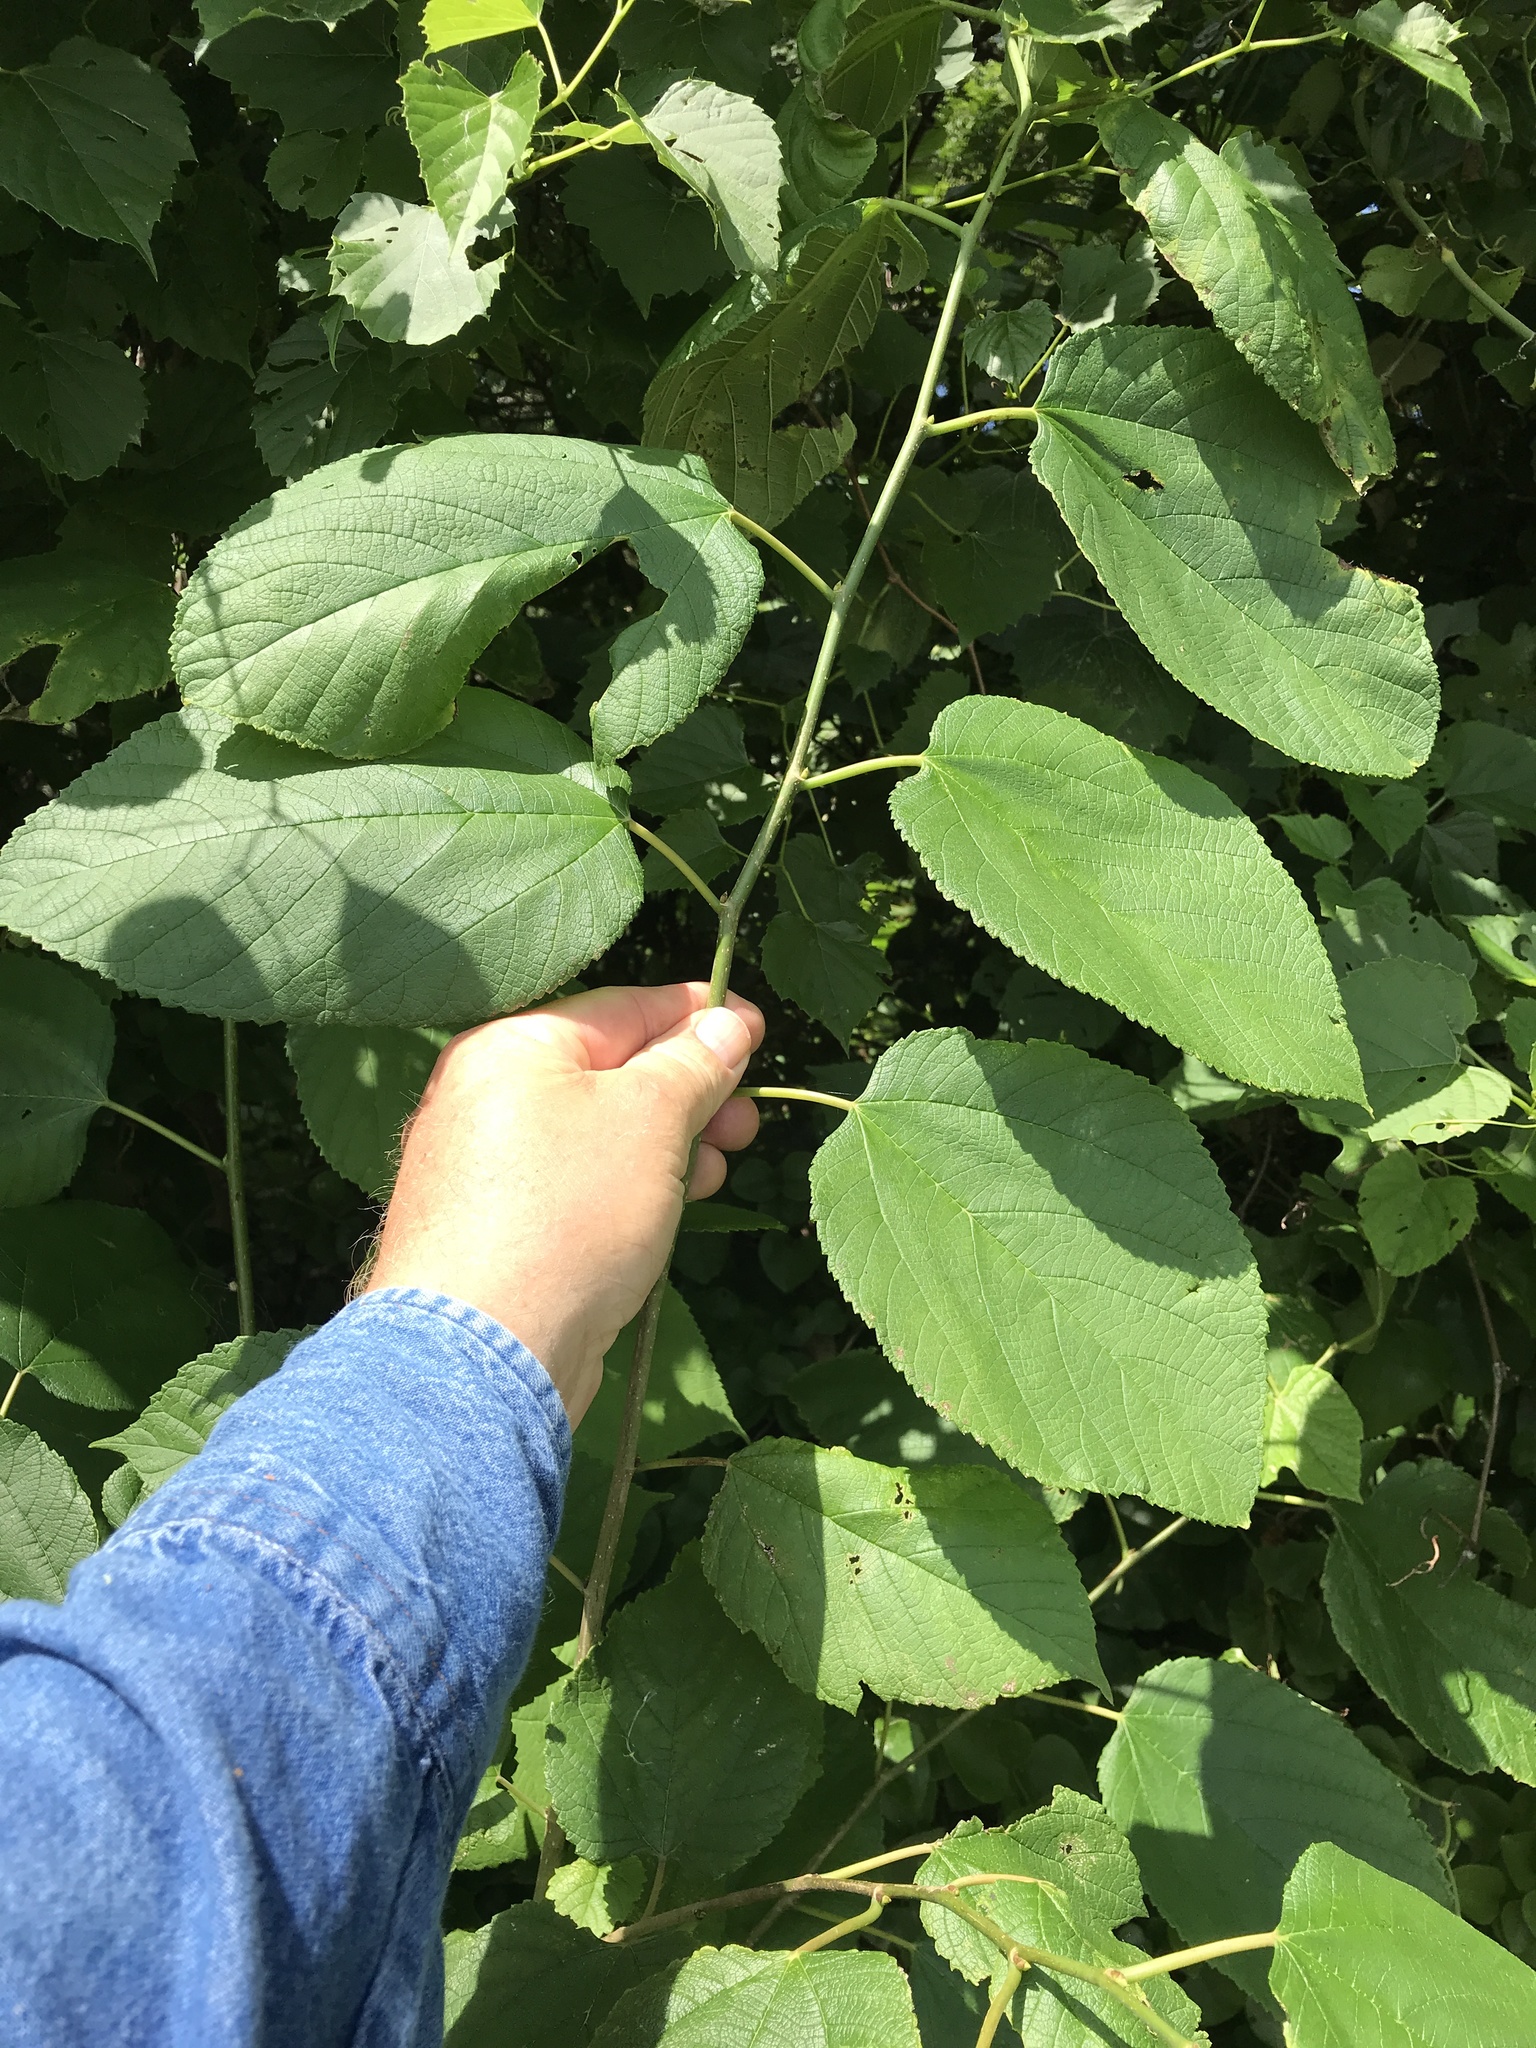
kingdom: Plantae
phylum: Tracheophyta
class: Magnoliopsida
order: Rosales
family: Moraceae
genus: Morus
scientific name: Morus rubra
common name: Red mulberry
